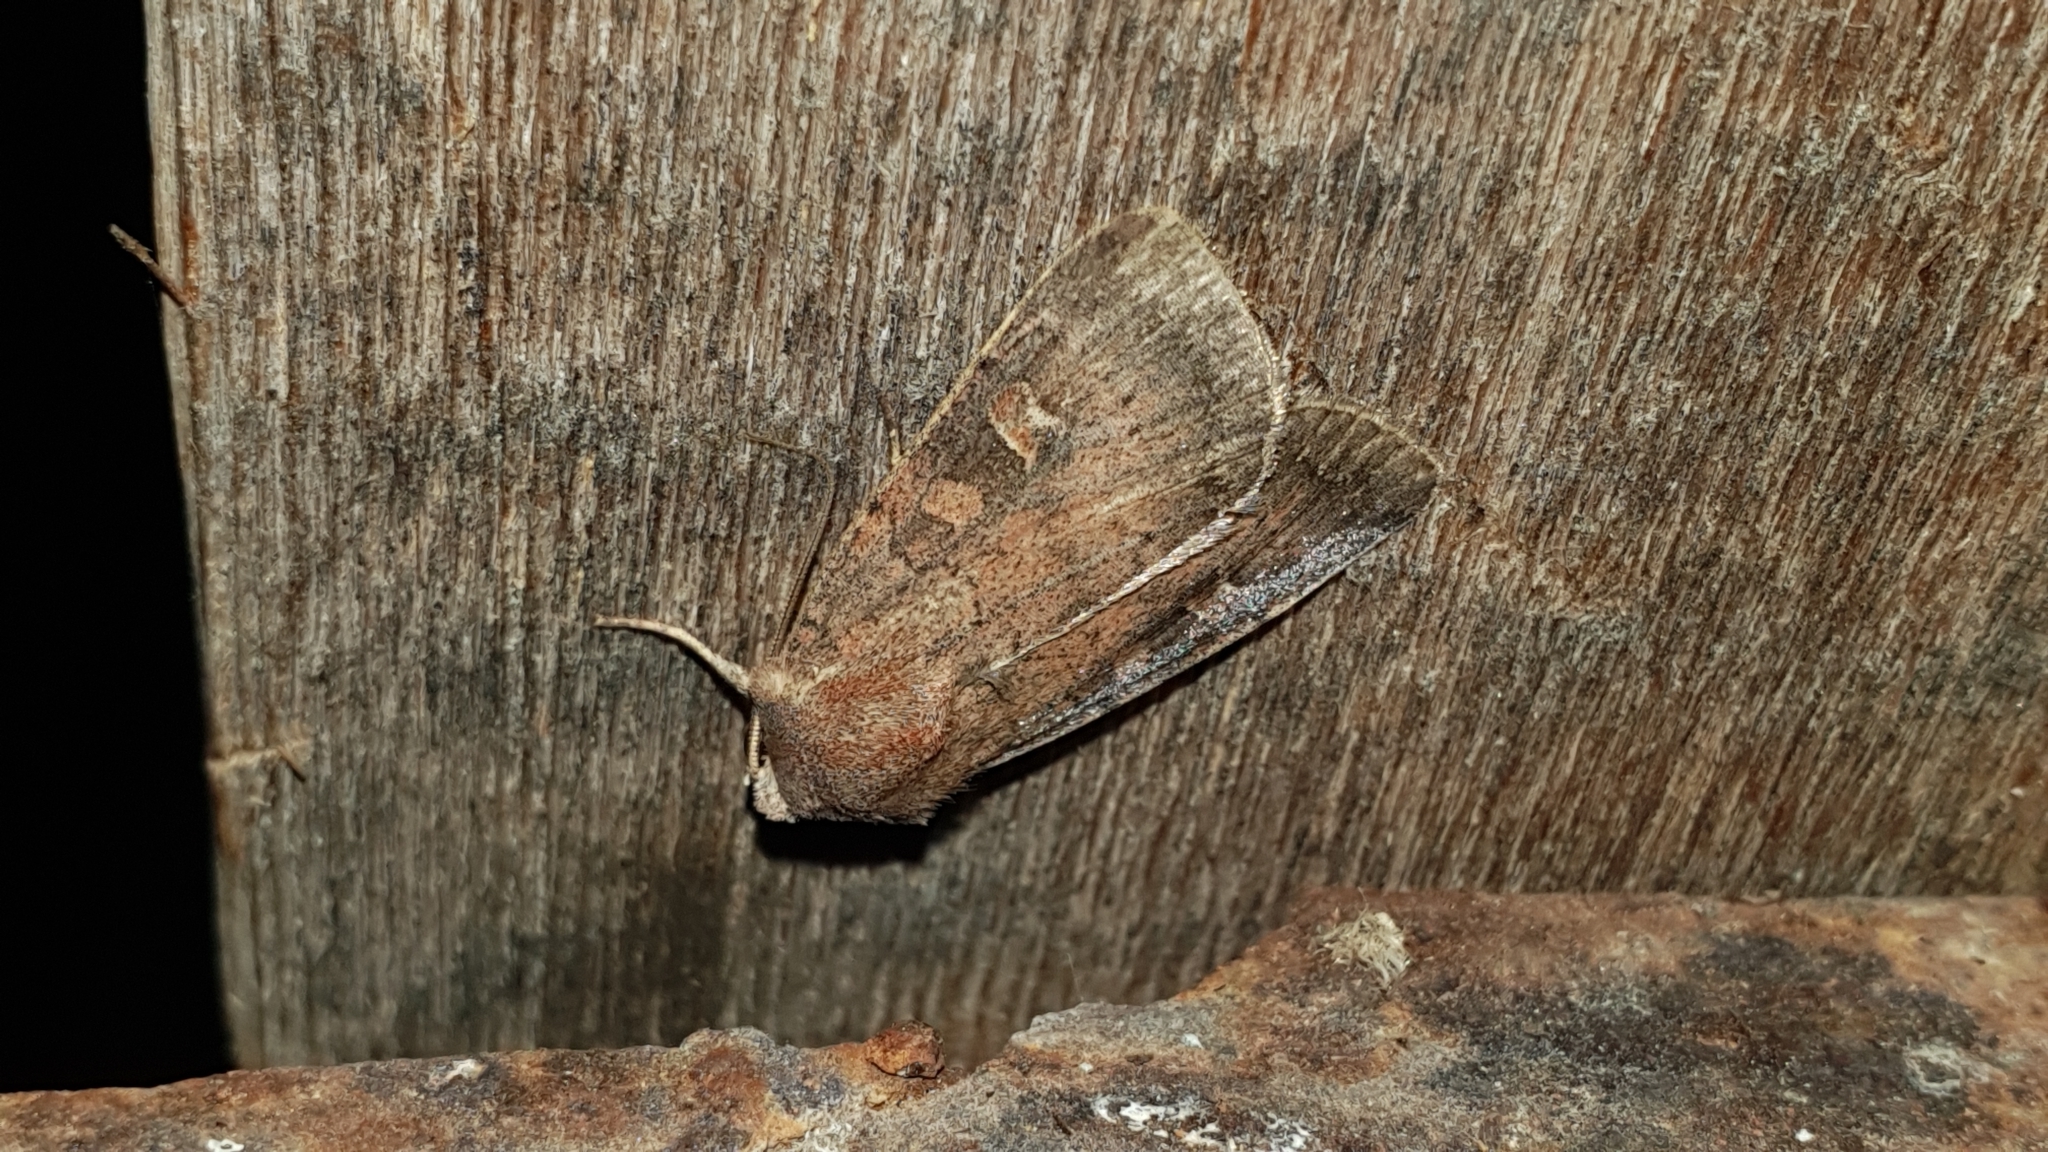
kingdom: Animalia
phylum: Arthropoda
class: Insecta
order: Lepidoptera
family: Noctuidae
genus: Xestia
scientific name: Xestia xanthographa
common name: Square-spot rustic
